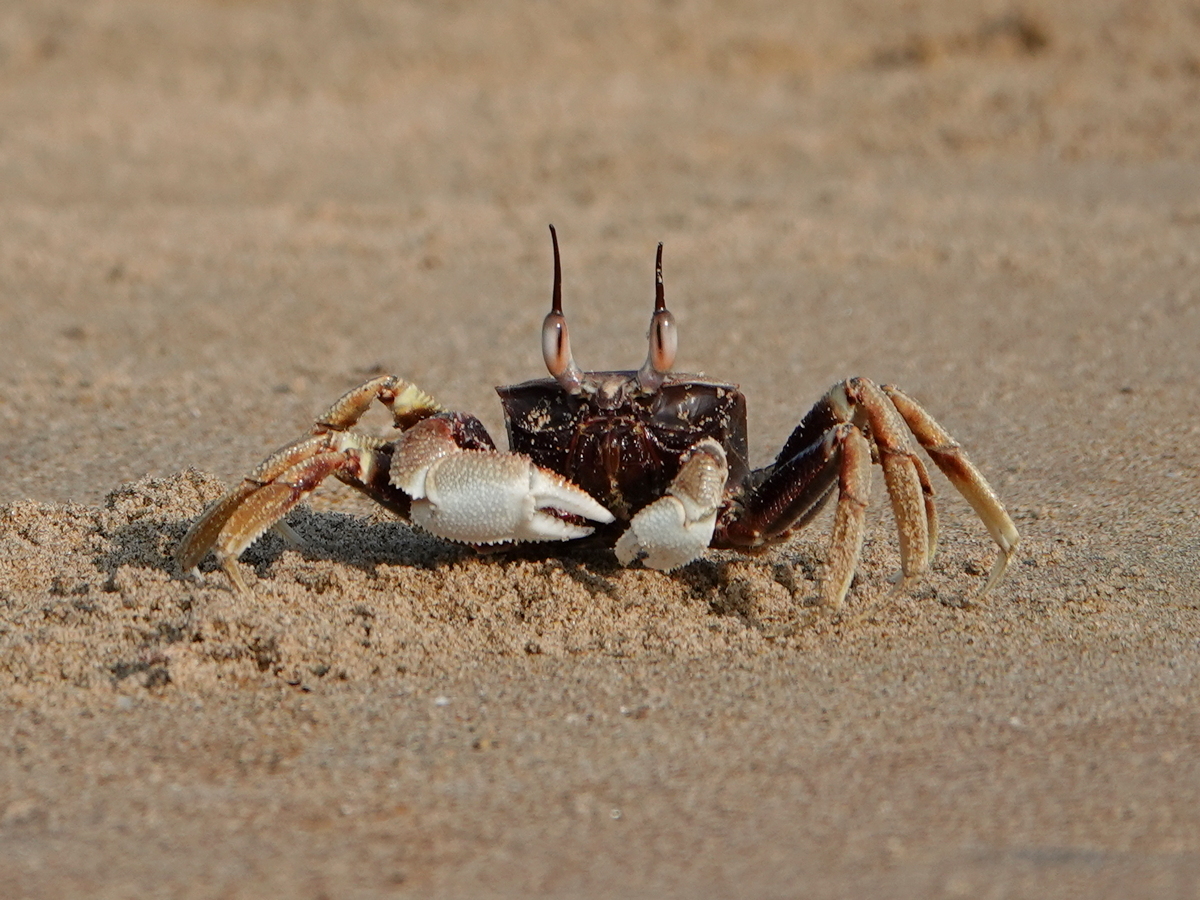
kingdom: Animalia
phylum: Arthropoda
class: Malacostraca
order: Decapoda
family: Ocypodidae
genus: Ocypode
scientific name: Ocypode ceratophthalmus
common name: Indo-pacific ghost crab
